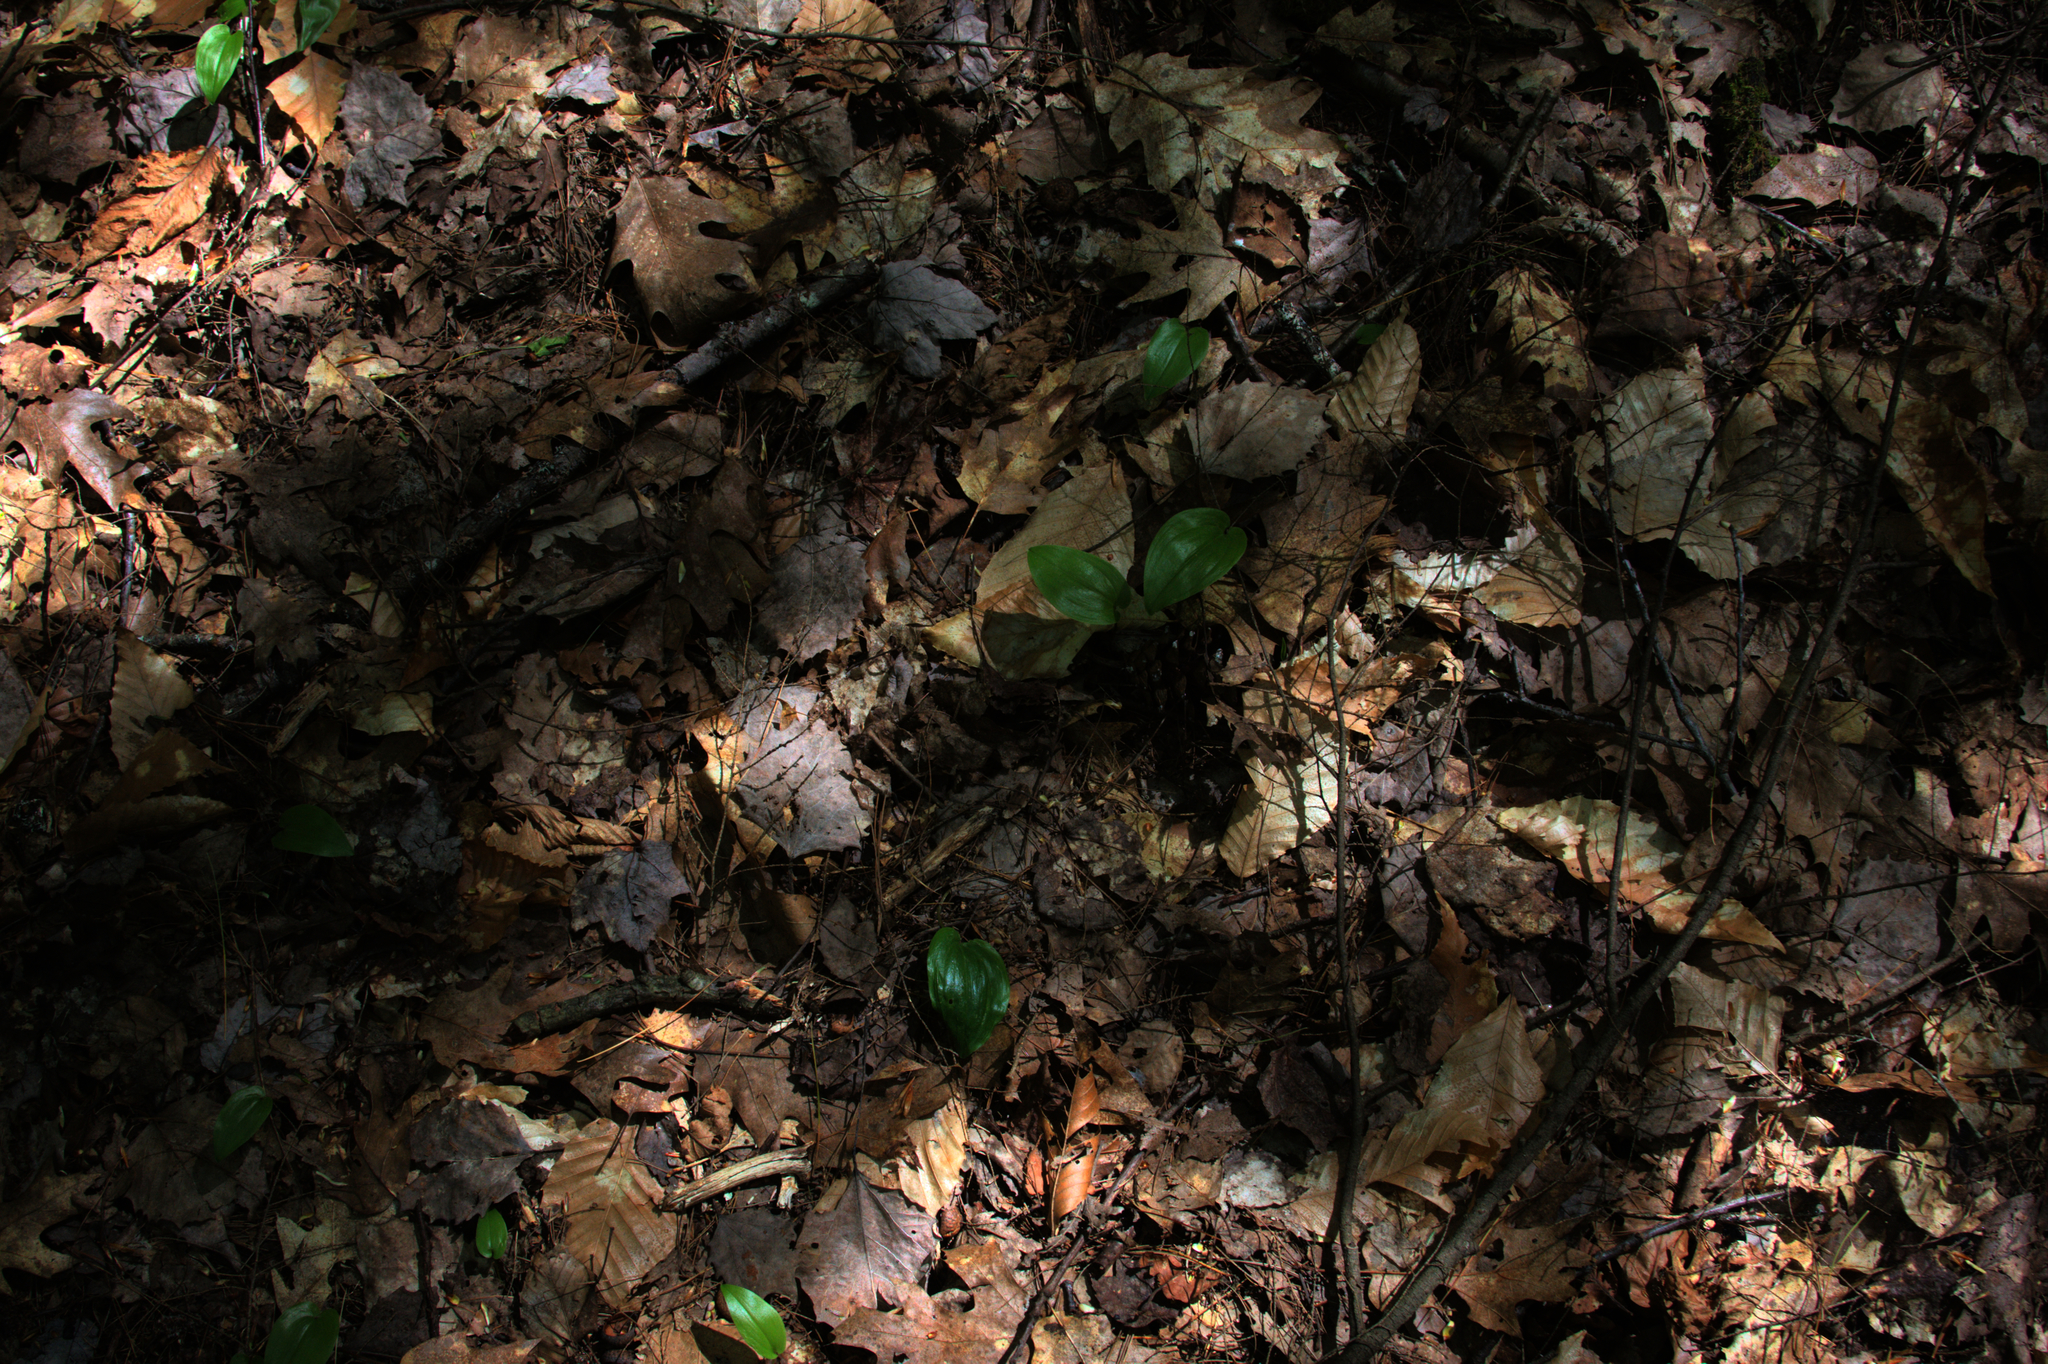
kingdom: Plantae
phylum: Tracheophyta
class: Liliopsida
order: Asparagales
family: Asparagaceae
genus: Maianthemum
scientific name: Maianthemum canadense
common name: False lily-of-the-valley
